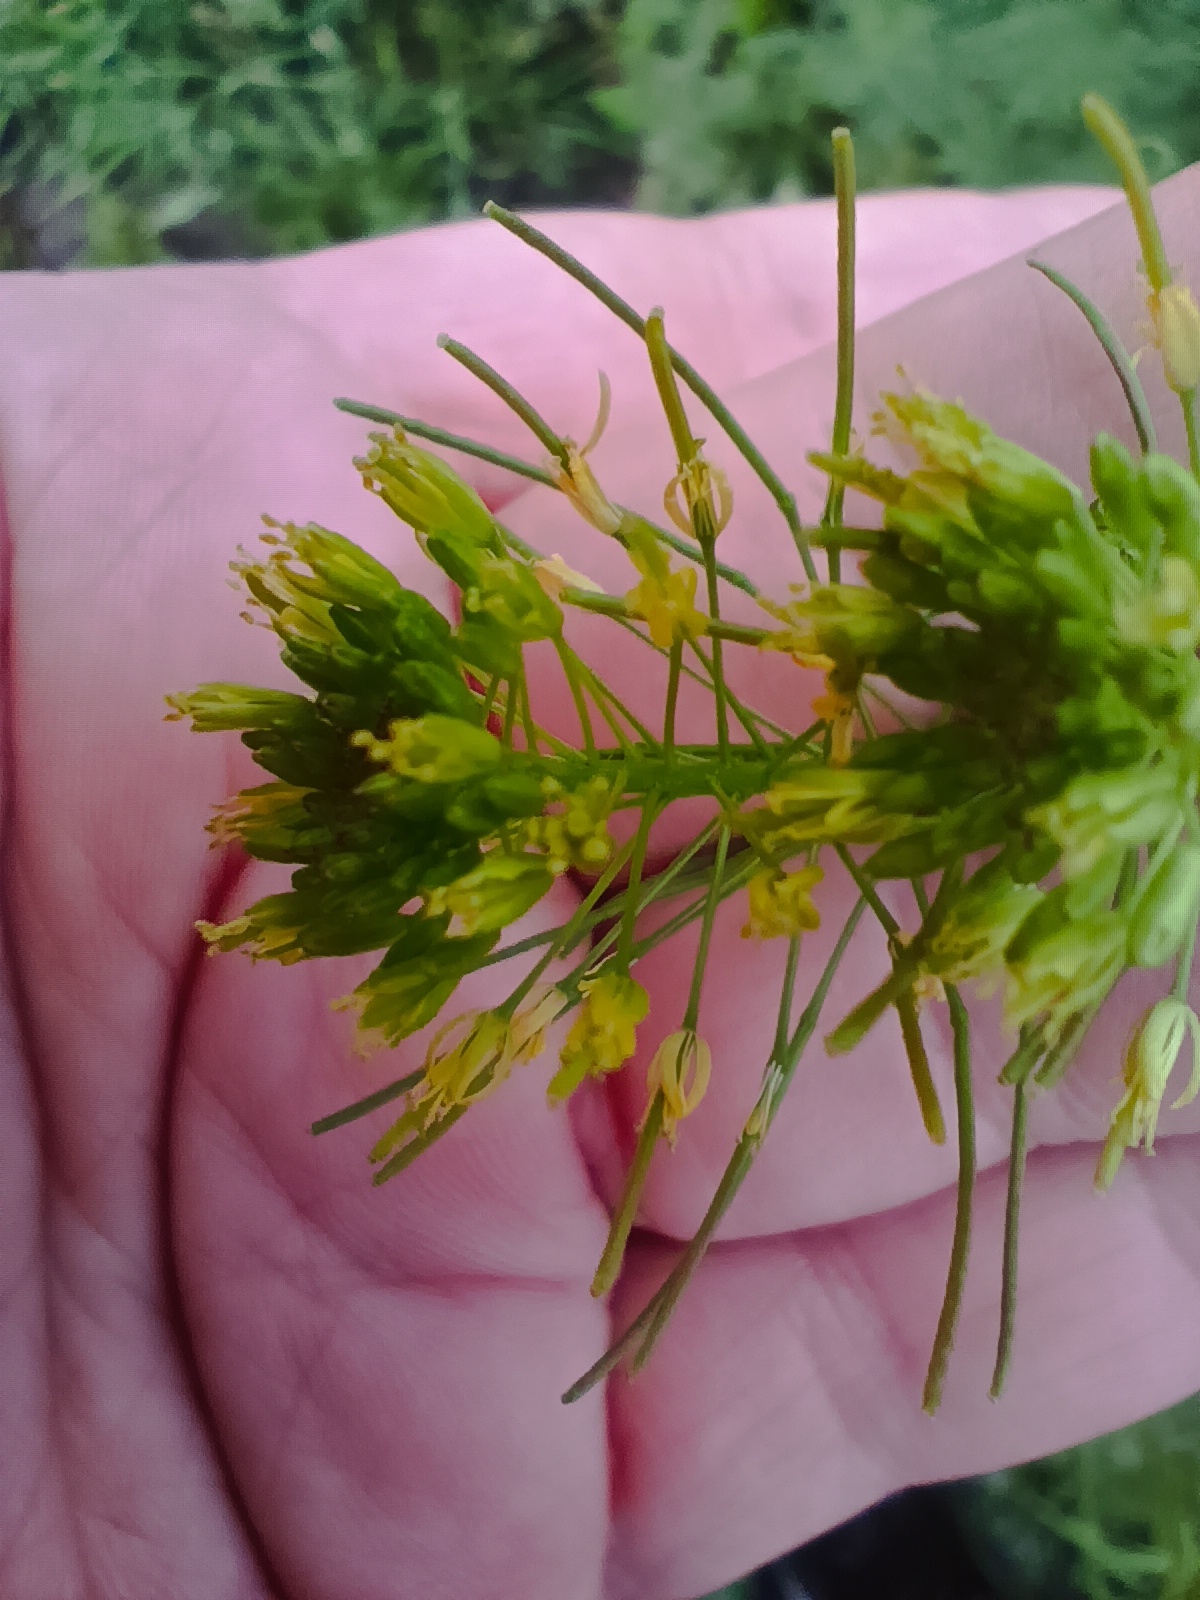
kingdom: Plantae
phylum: Tracheophyta
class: Magnoliopsida
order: Brassicales
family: Brassicaceae
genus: Descurainia
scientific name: Descurainia sophia
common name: Flixweed
